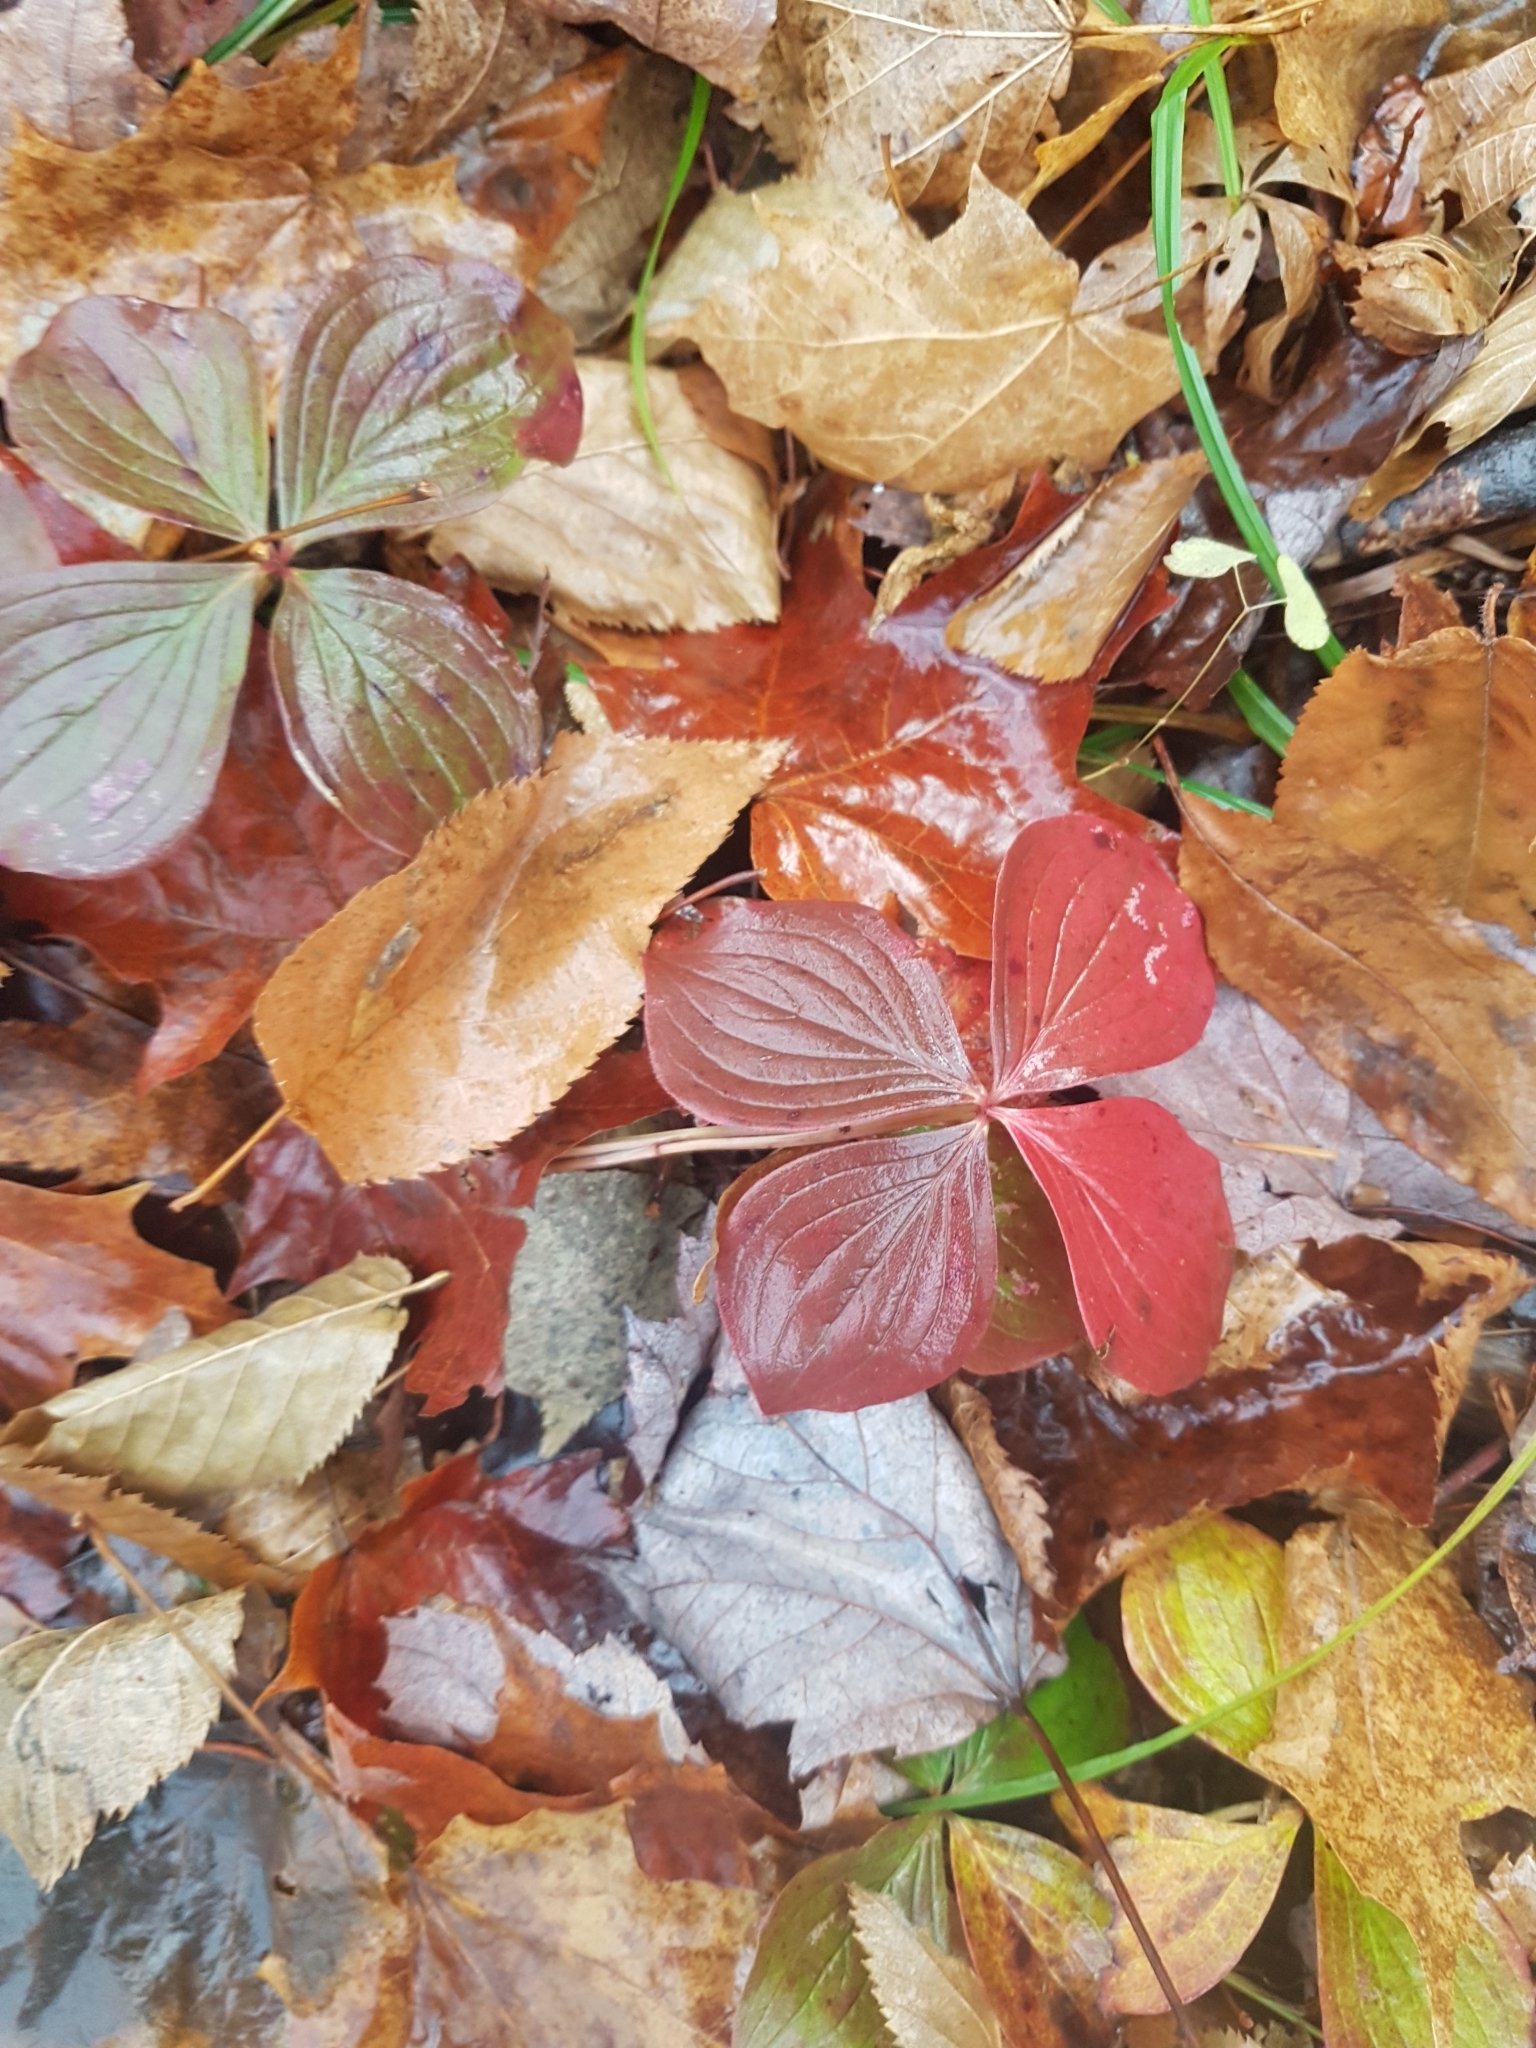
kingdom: Plantae
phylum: Tracheophyta
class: Magnoliopsida
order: Cornales
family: Cornaceae
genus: Cornus
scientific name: Cornus canadensis
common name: Creeping dogwood
